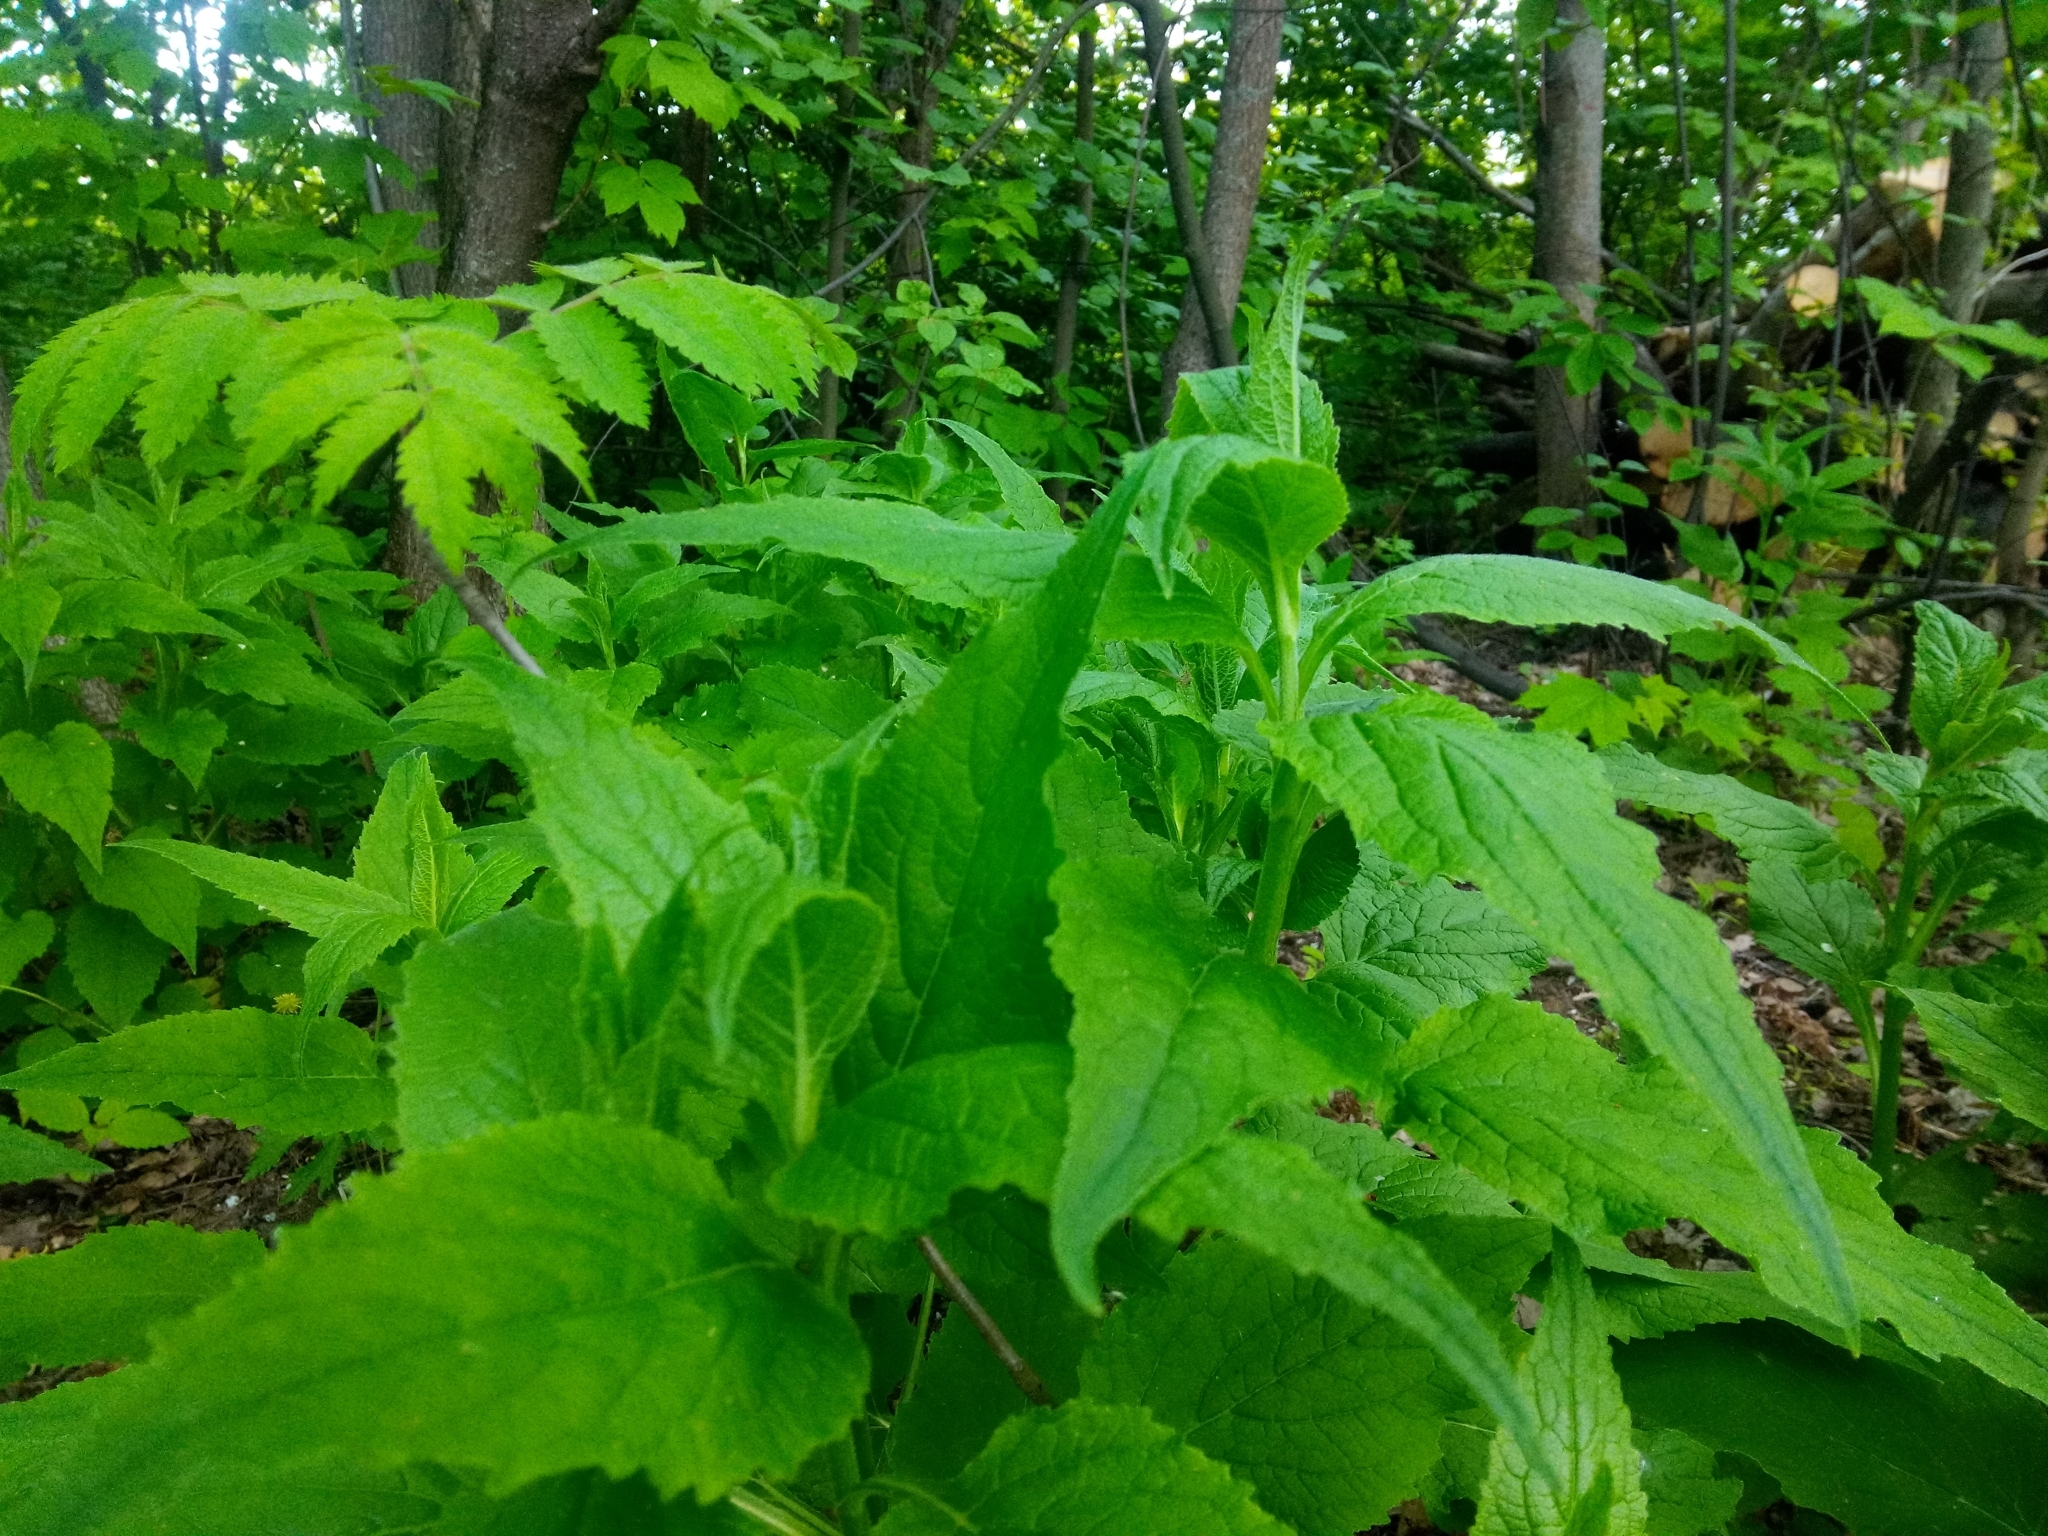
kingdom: Plantae
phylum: Tracheophyta
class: Magnoliopsida
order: Asterales
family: Campanulaceae
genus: Campanula
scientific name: Campanula latifolia
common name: Giant bellflower
